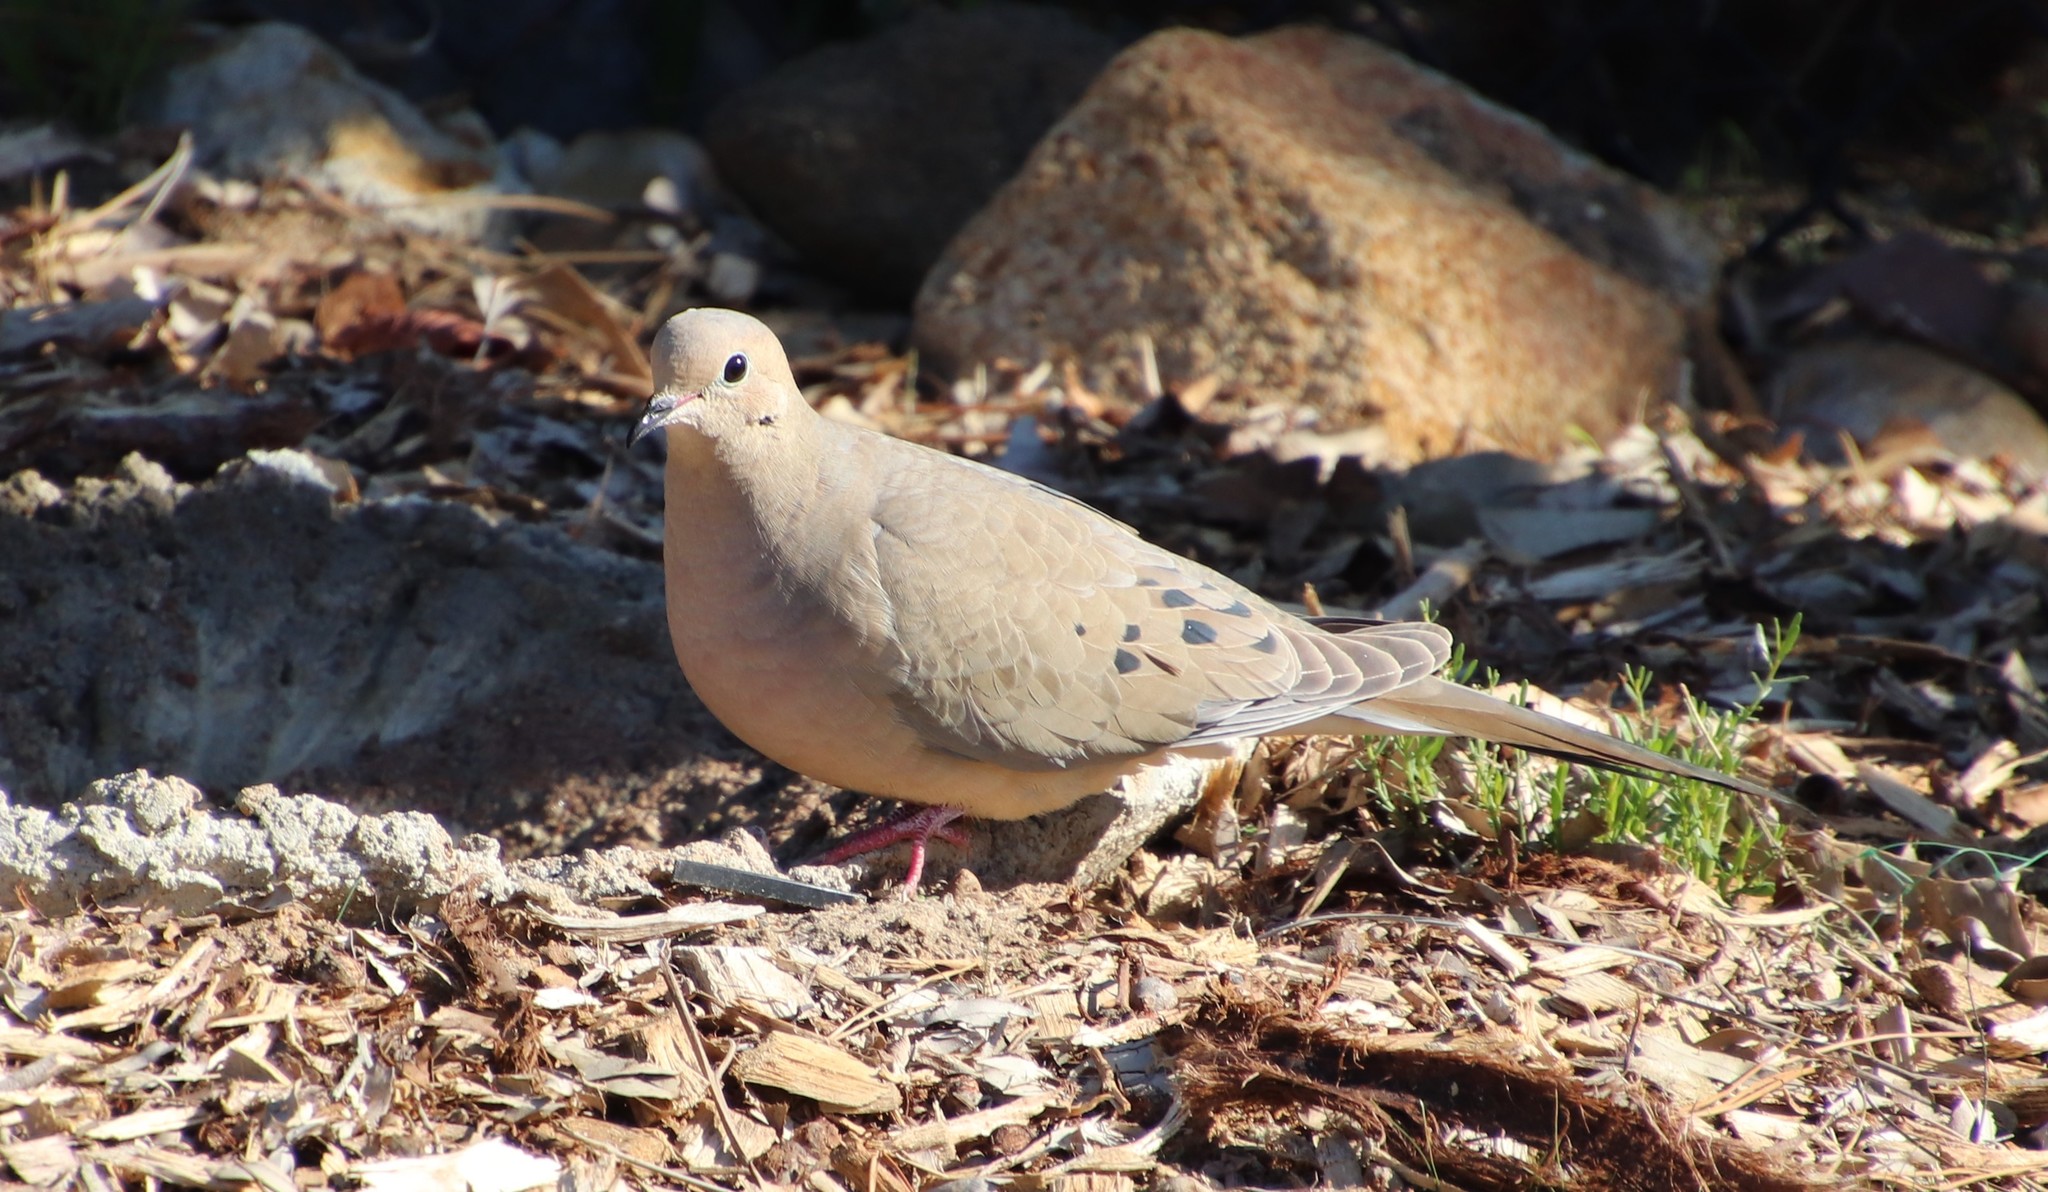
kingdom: Animalia
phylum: Chordata
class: Aves
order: Columbiformes
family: Columbidae
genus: Zenaida
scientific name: Zenaida macroura
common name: Mourning dove
